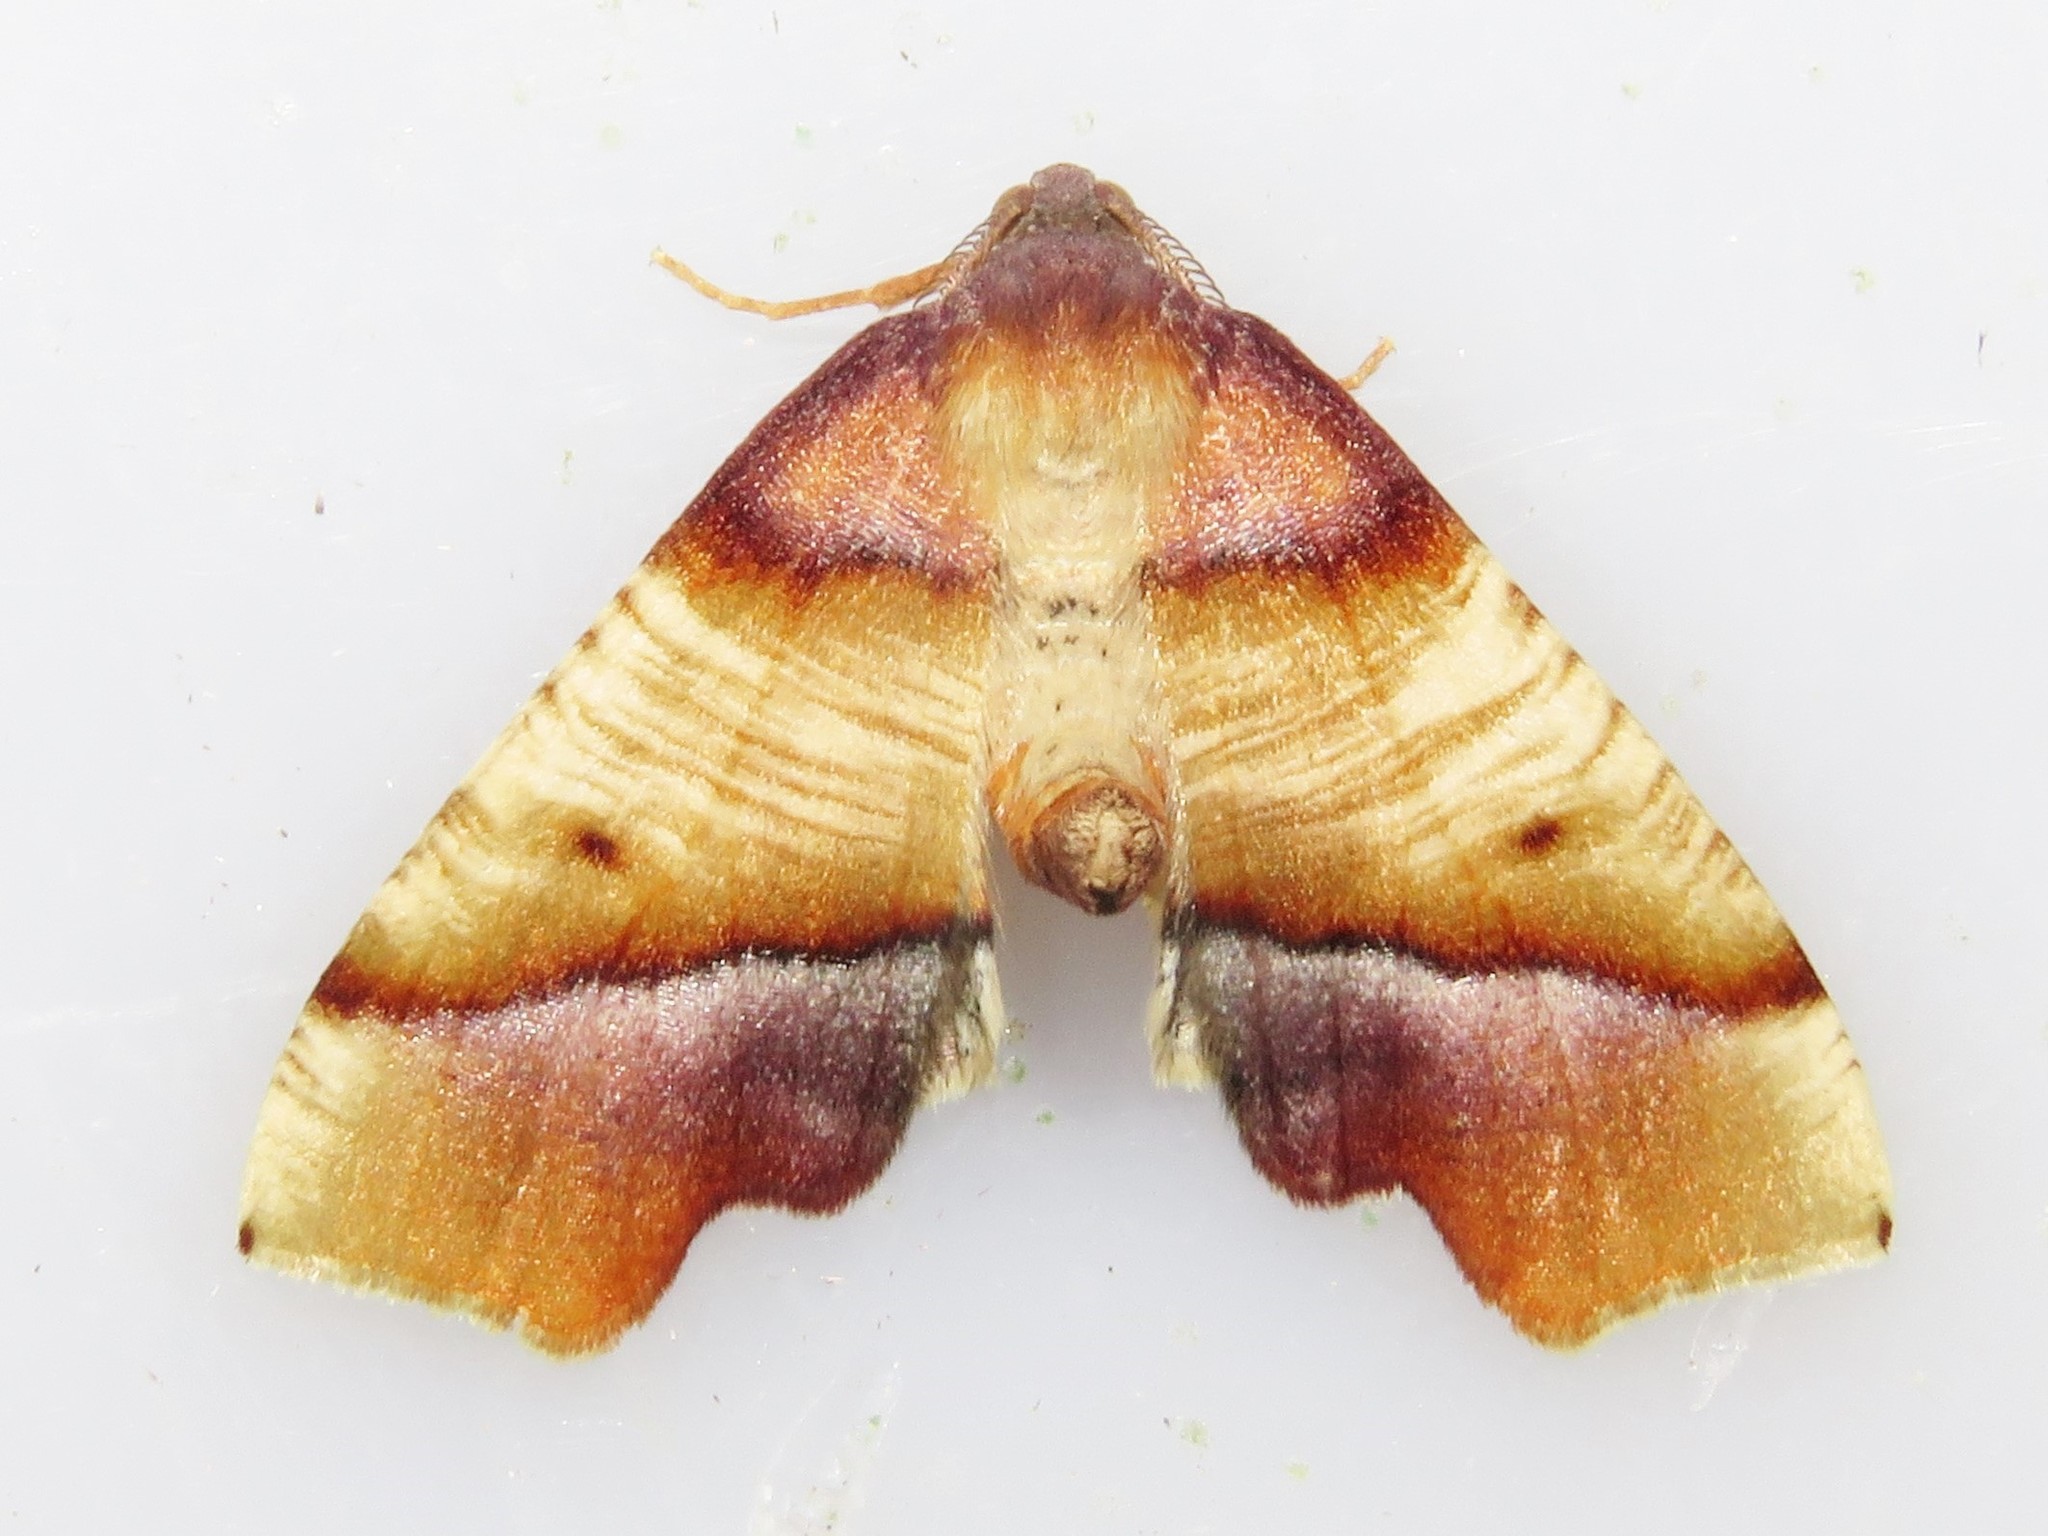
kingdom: Animalia
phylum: Arthropoda
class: Insecta
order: Lepidoptera
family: Geometridae
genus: Plagodis
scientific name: Plagodis phlogosaria
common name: Straight-lined plagodis
